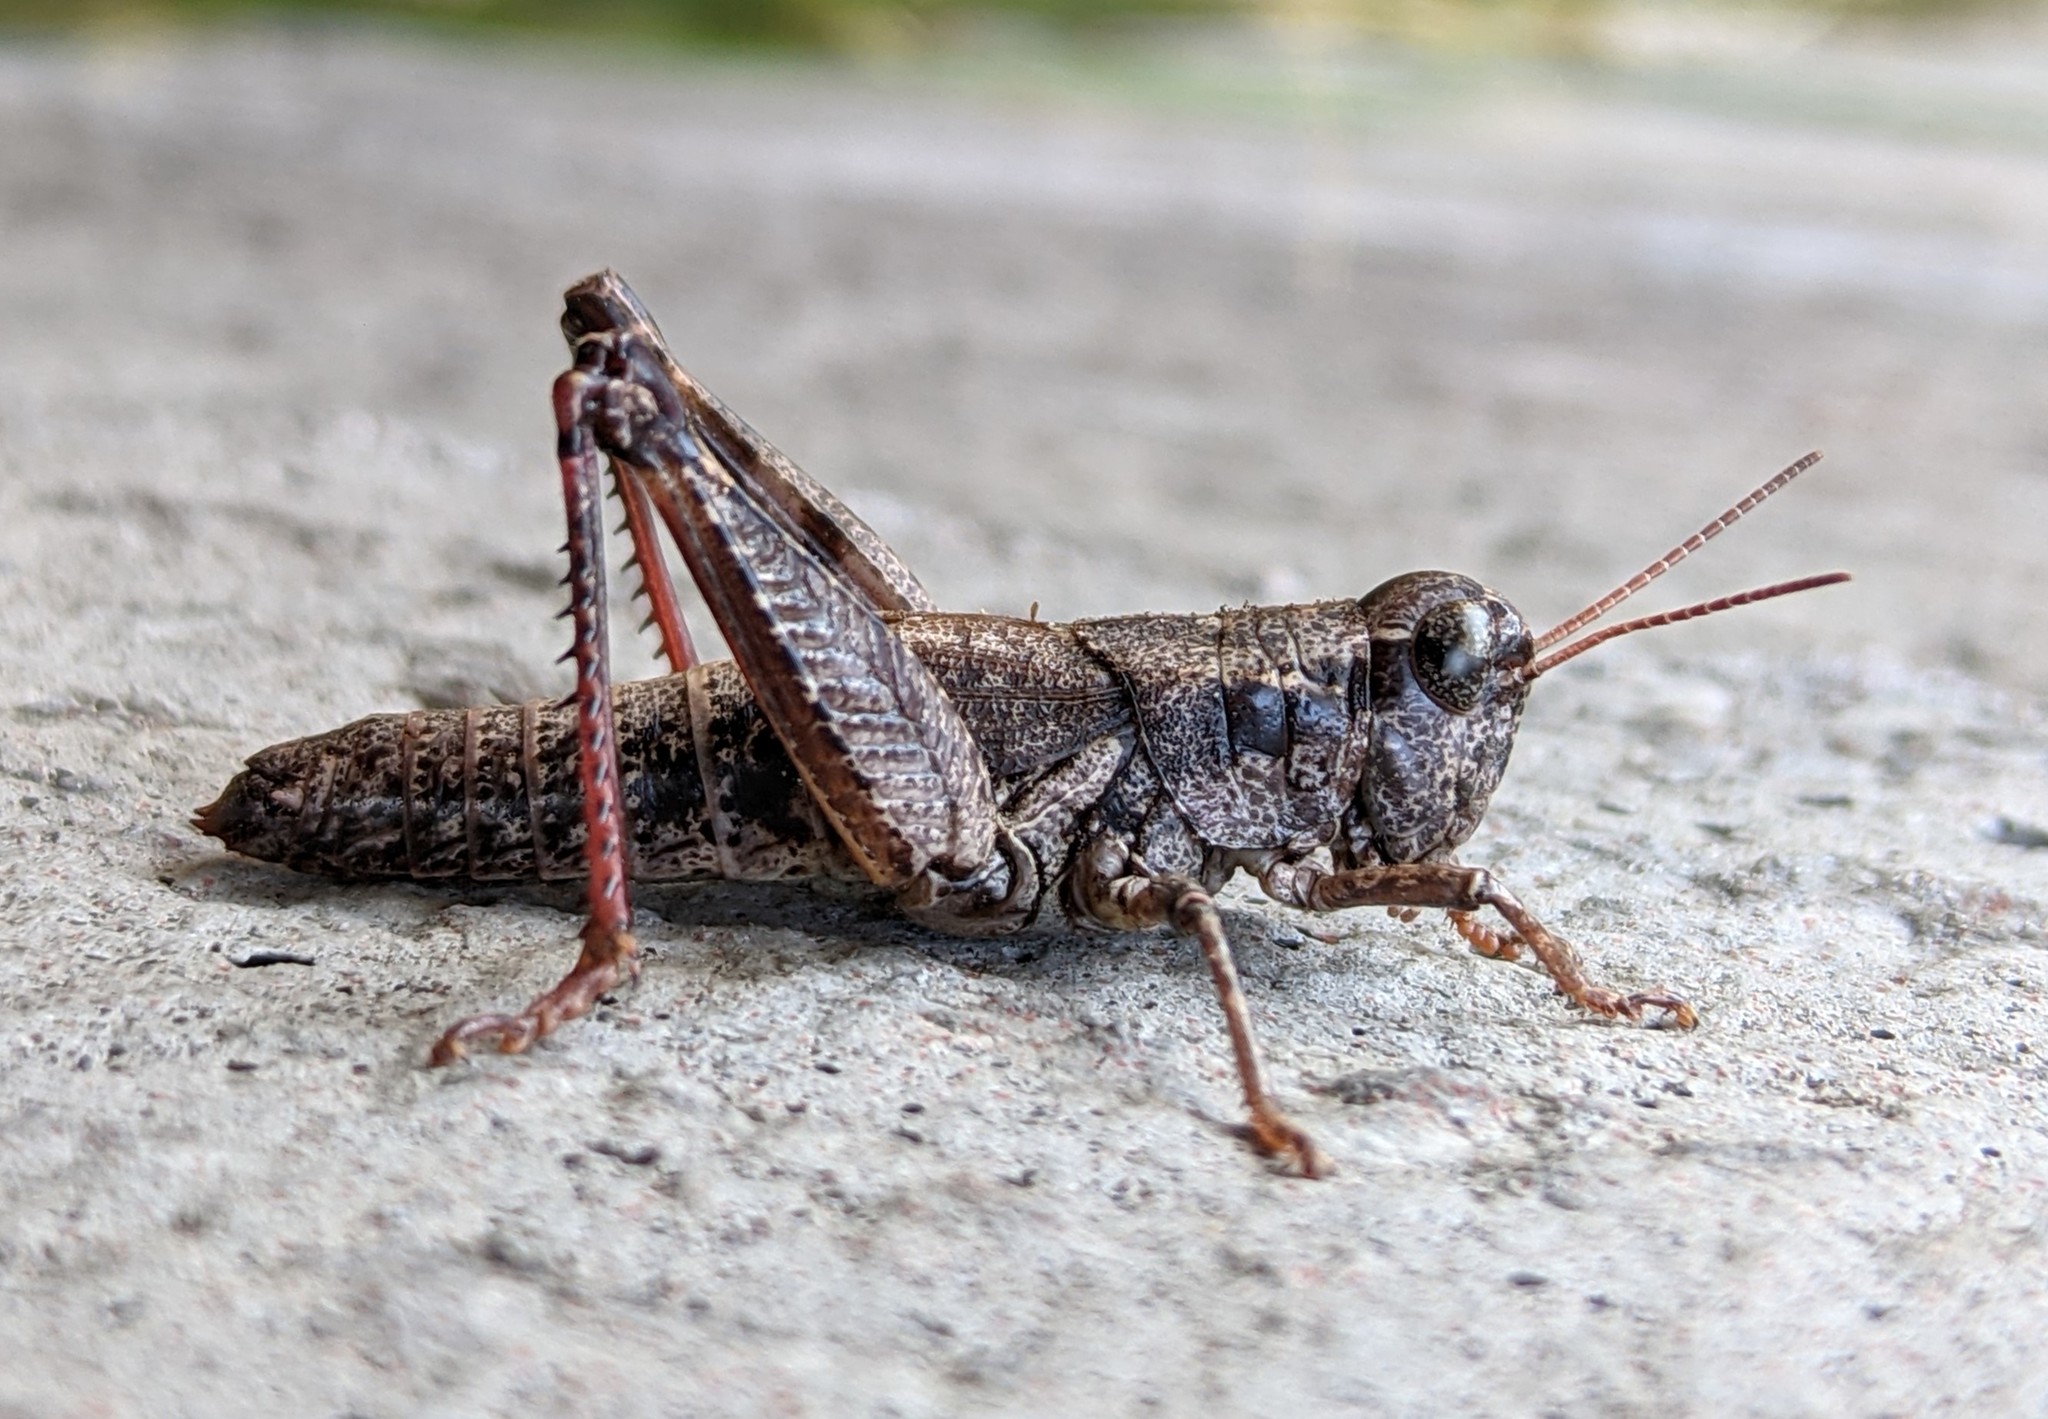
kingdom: Animalia
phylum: Arthropoda
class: Insecta
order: Orthoptera
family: Acrididae
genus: Melanoplus
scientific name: Melanoplus oregonis
